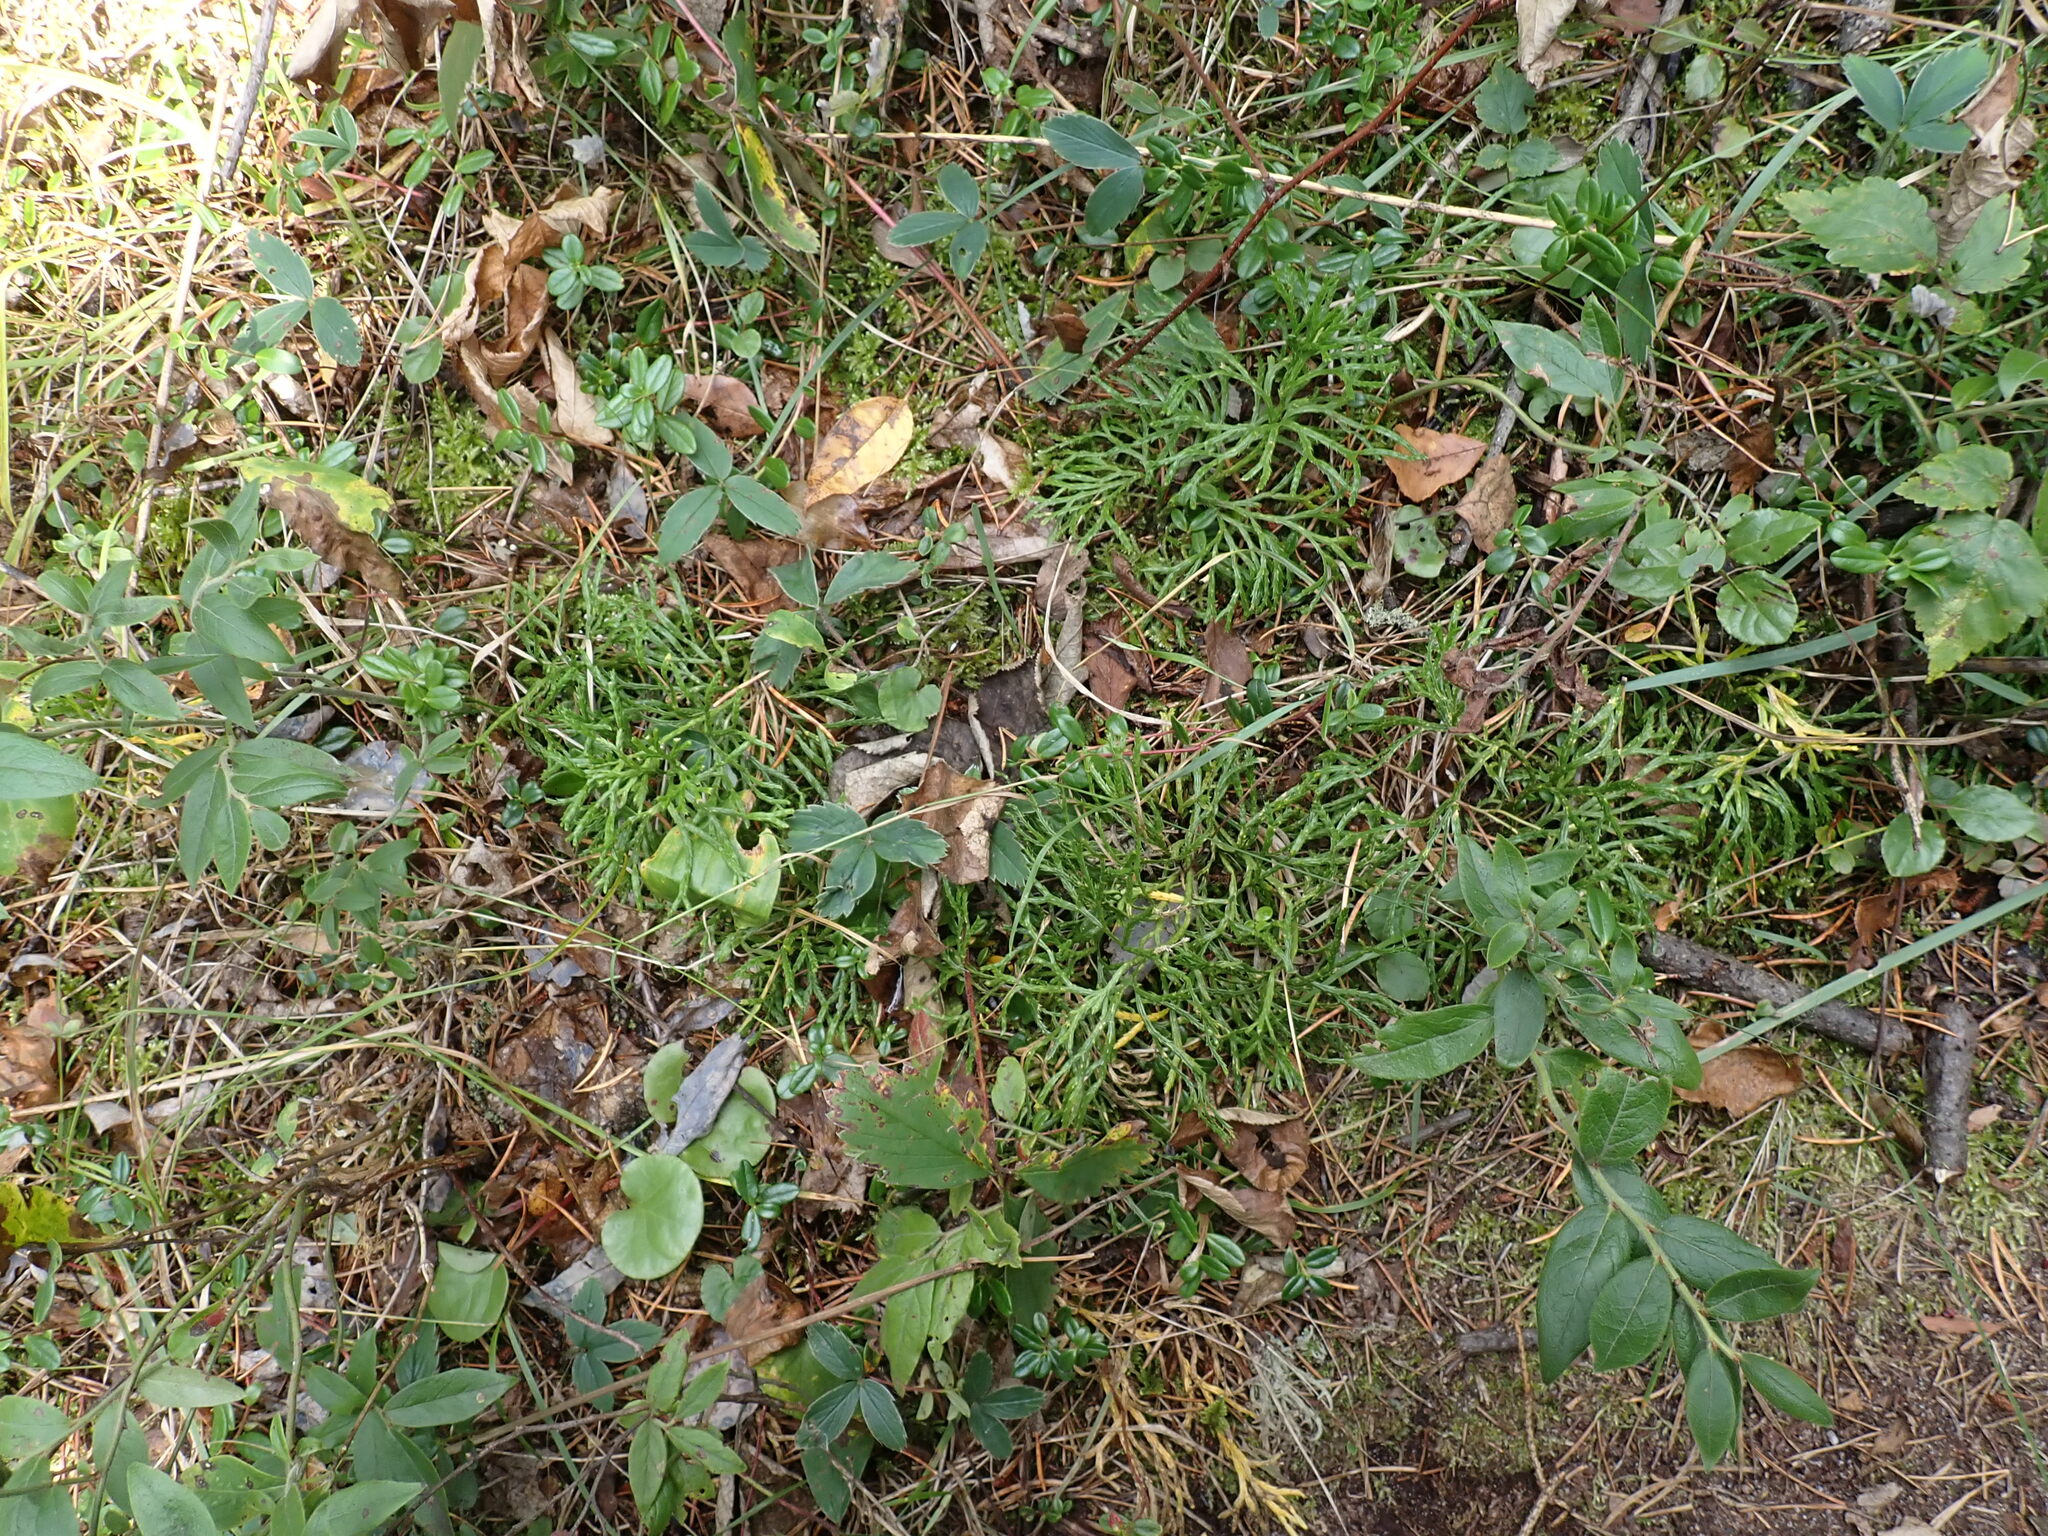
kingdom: Plantae
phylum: Tracheophyta
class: Lycopodiopsida
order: Lycopodiales
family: Lycopodiaceae
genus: Diphasiastrum
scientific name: Diphasiastrum complanatum
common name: Northern running-pine
